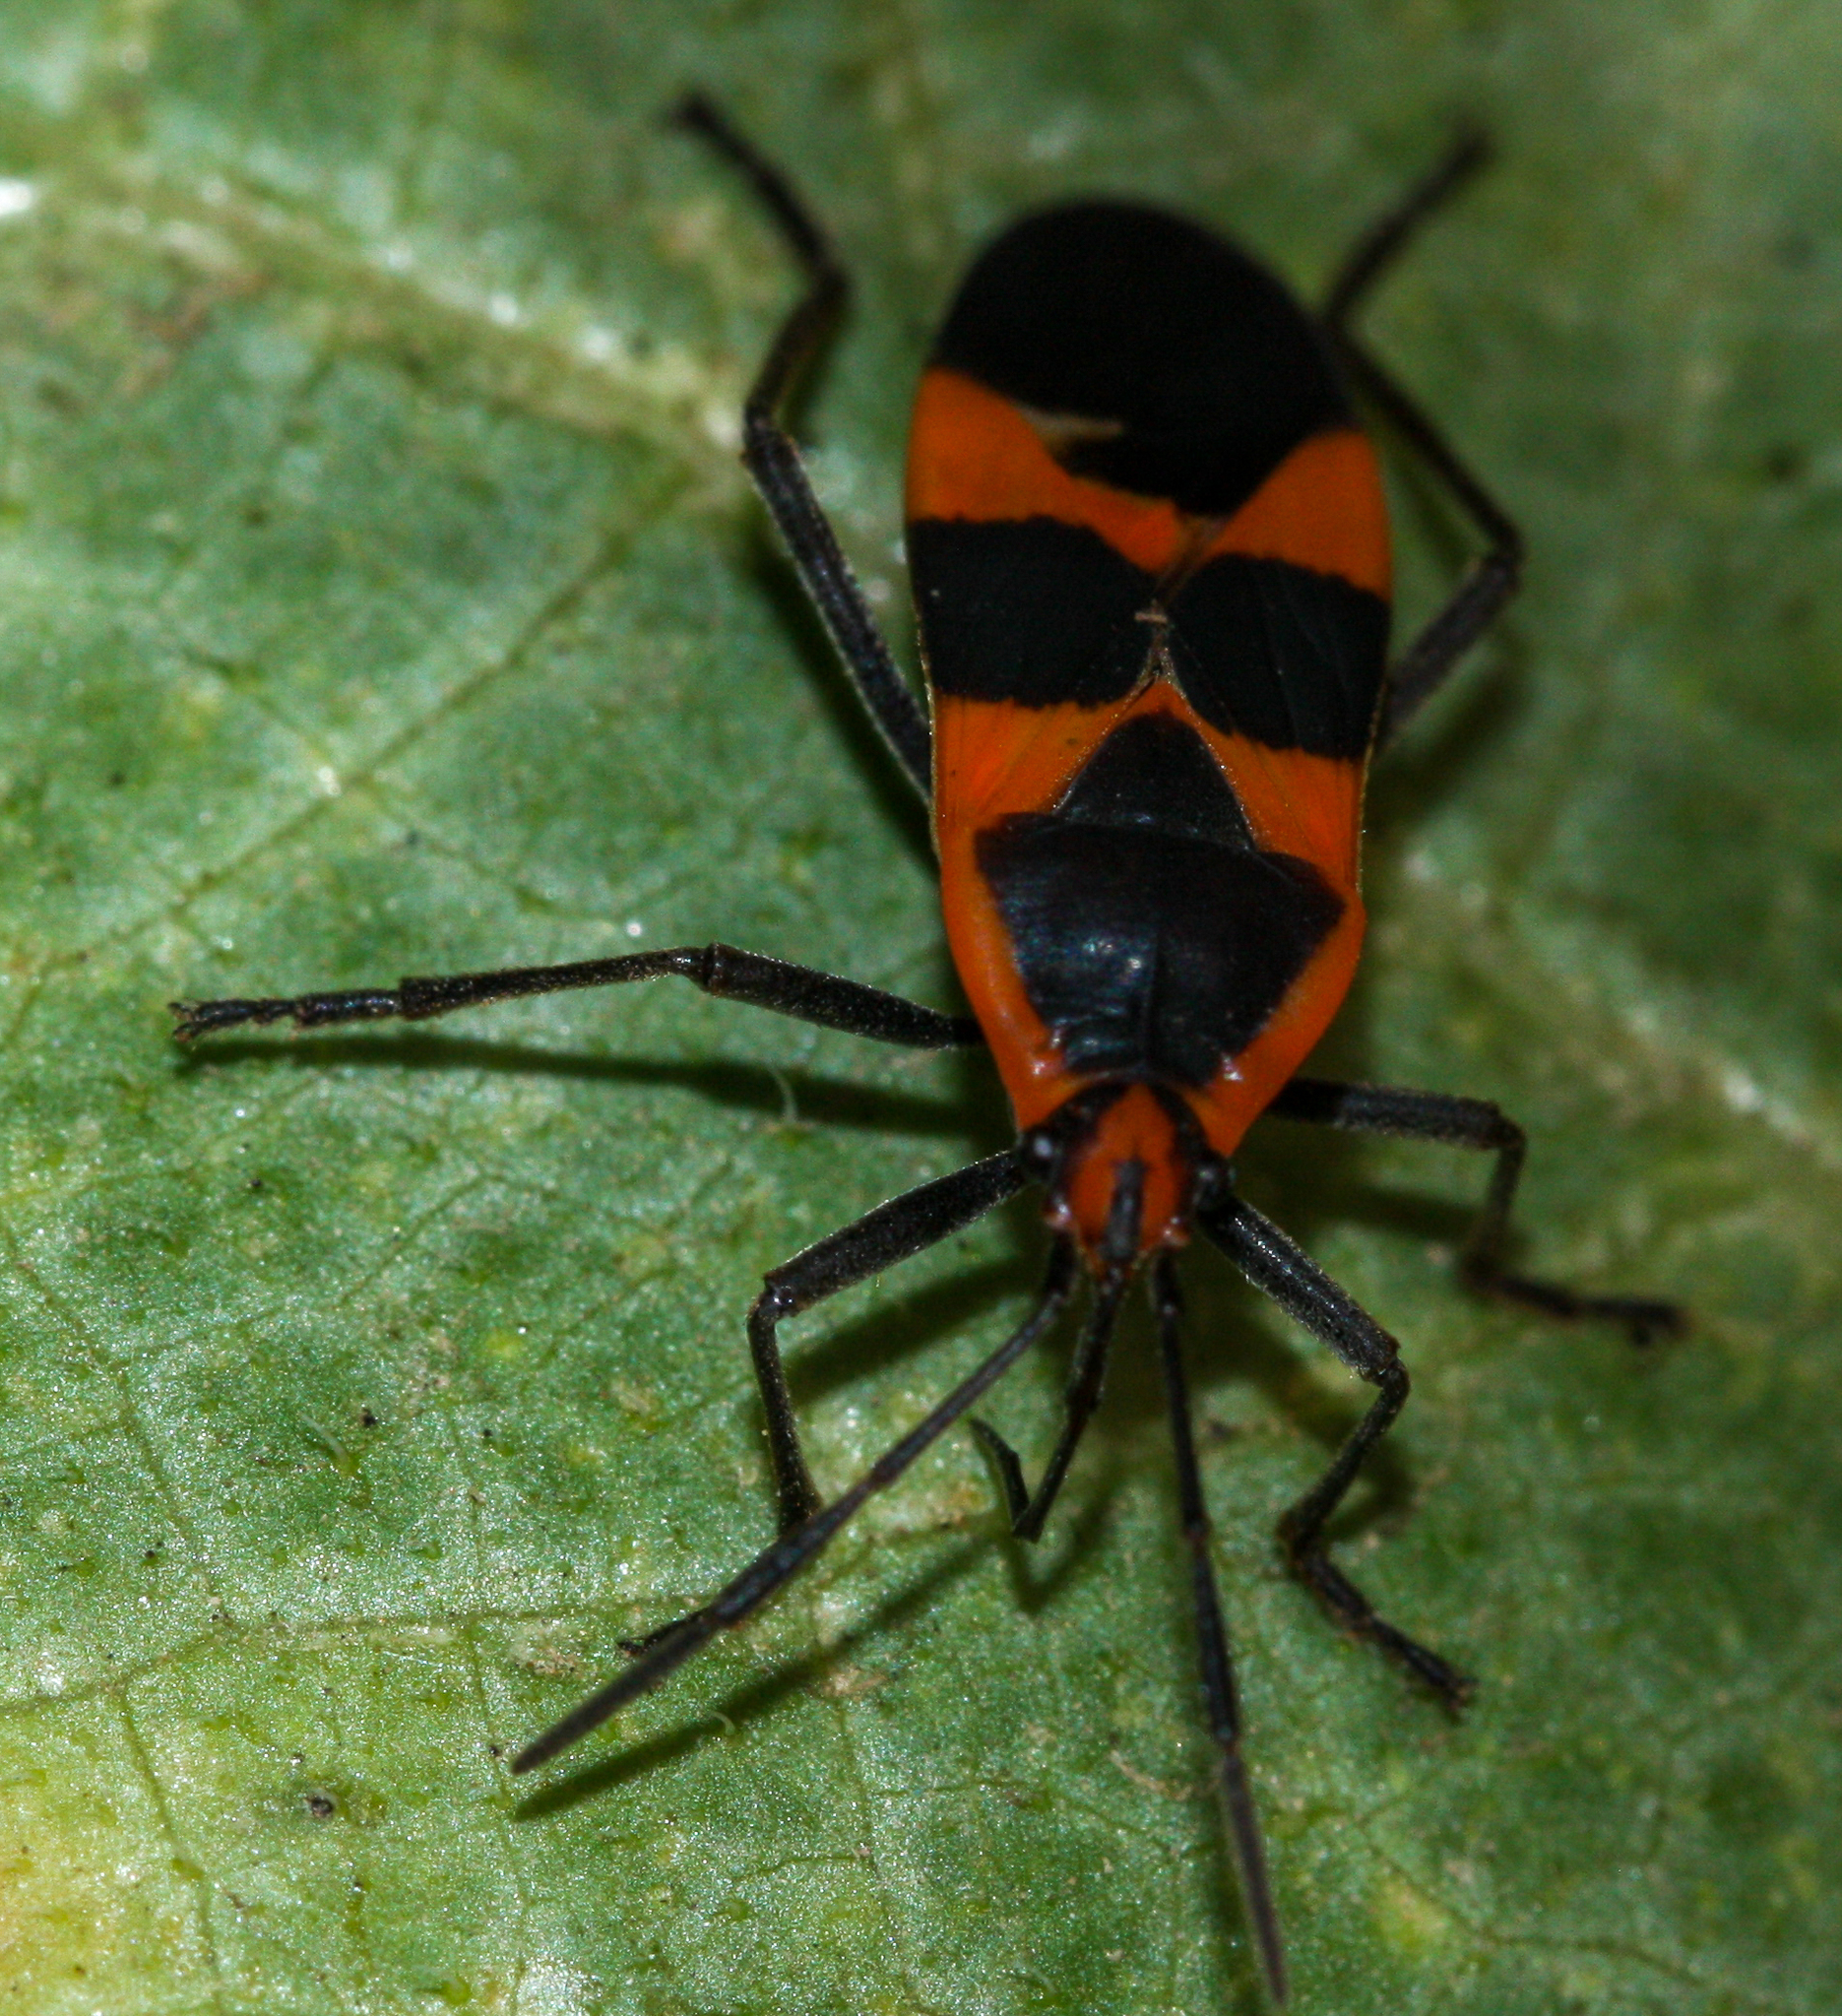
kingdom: Animalia
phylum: Arthropoda
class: Insecta
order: Hemiptera
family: Lygaeidae
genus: Oncopeltus
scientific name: Oncopeltus fasciatus
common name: Large milkweed bug
